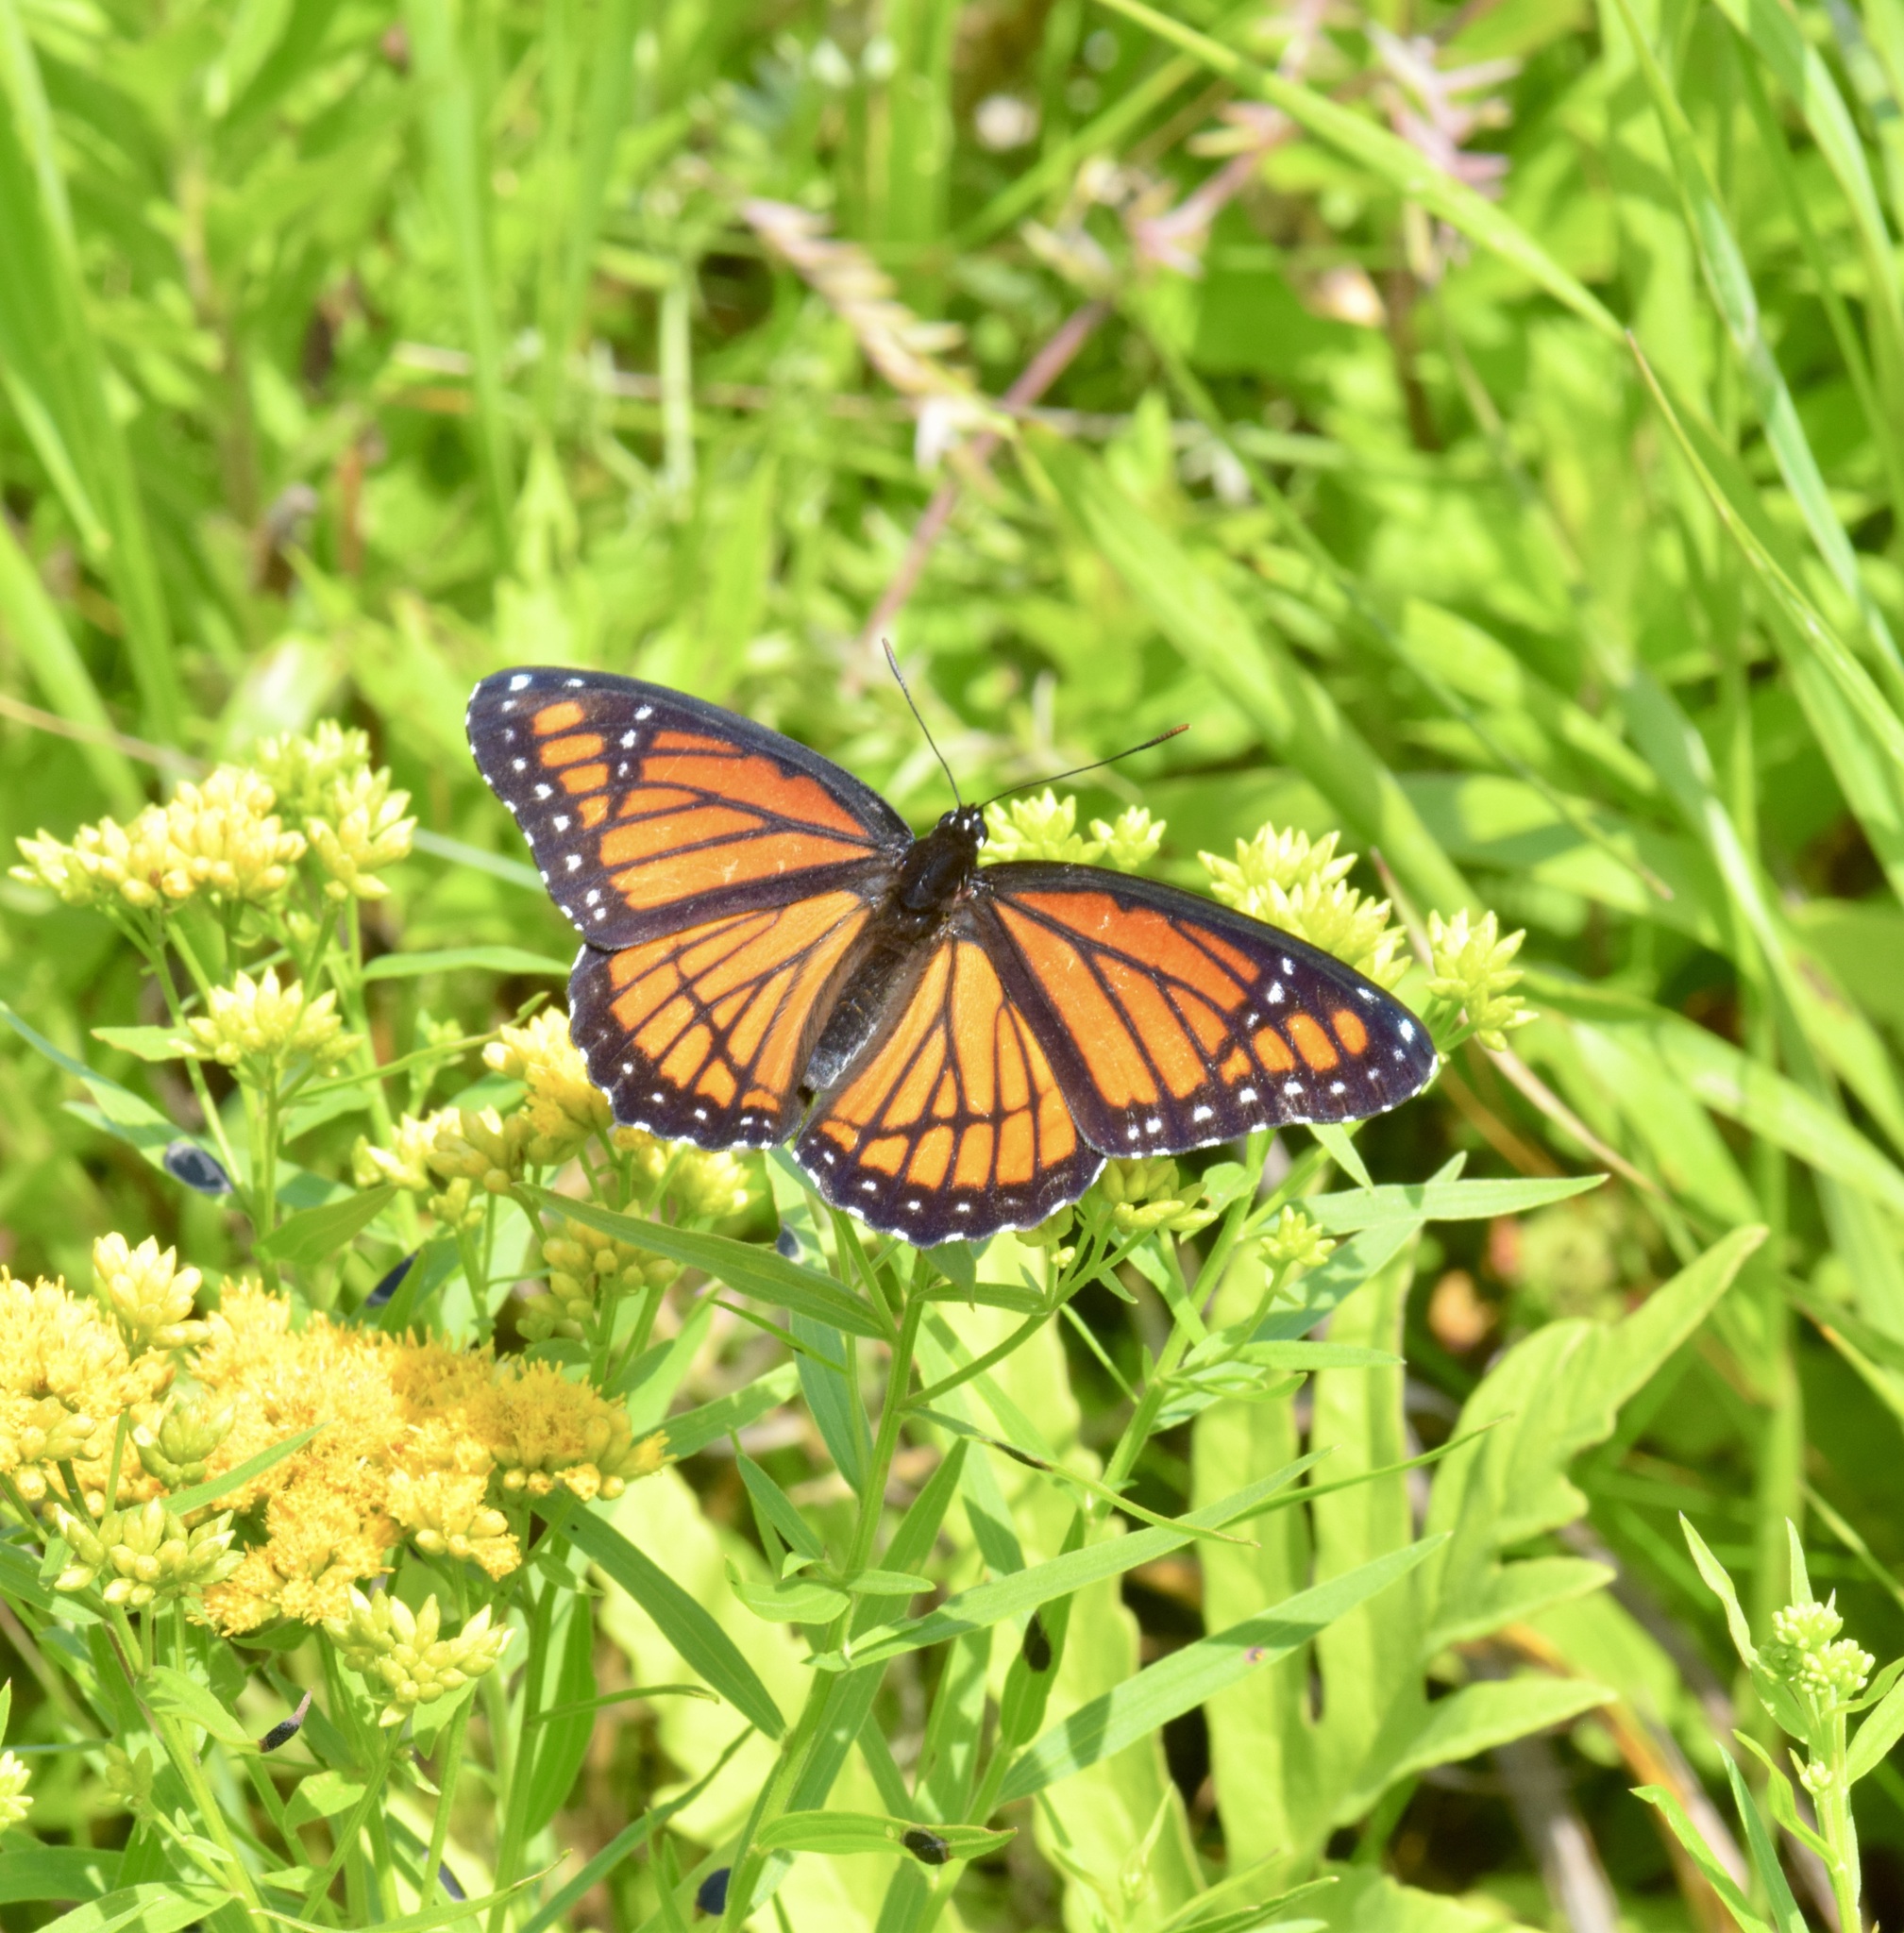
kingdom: Animalia
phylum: Arthropoda
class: Insecta
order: Lepidoptera
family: Nymphalidae
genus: Limenitis
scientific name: Limenitis archippus
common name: Viceroy
